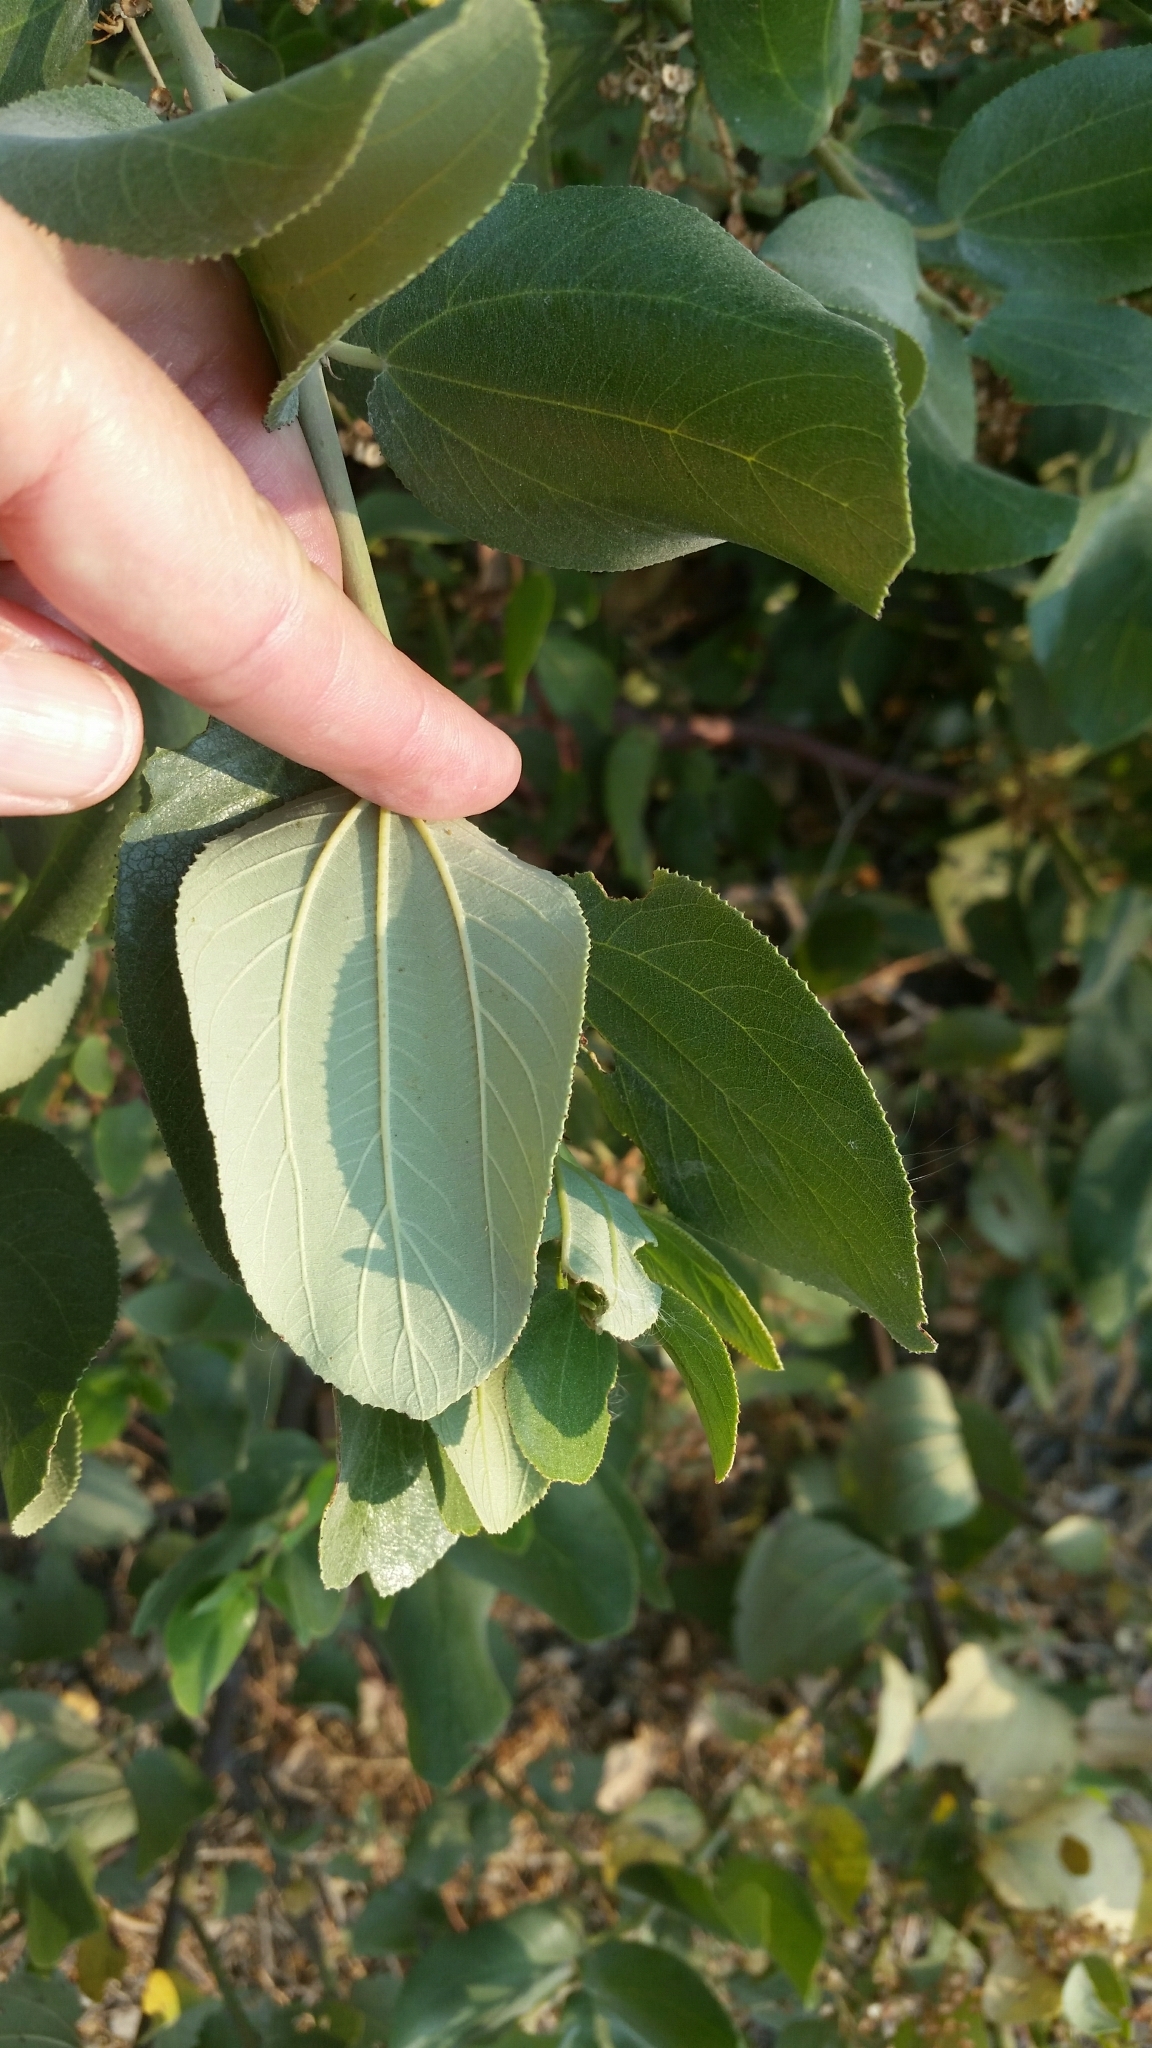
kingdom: Plantae
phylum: Tracheophyta
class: Magnoliopsida
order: Rosales
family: Rhamnaceae
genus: Ceanothus
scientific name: Ceanothus velutinus
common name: Snowbrush
